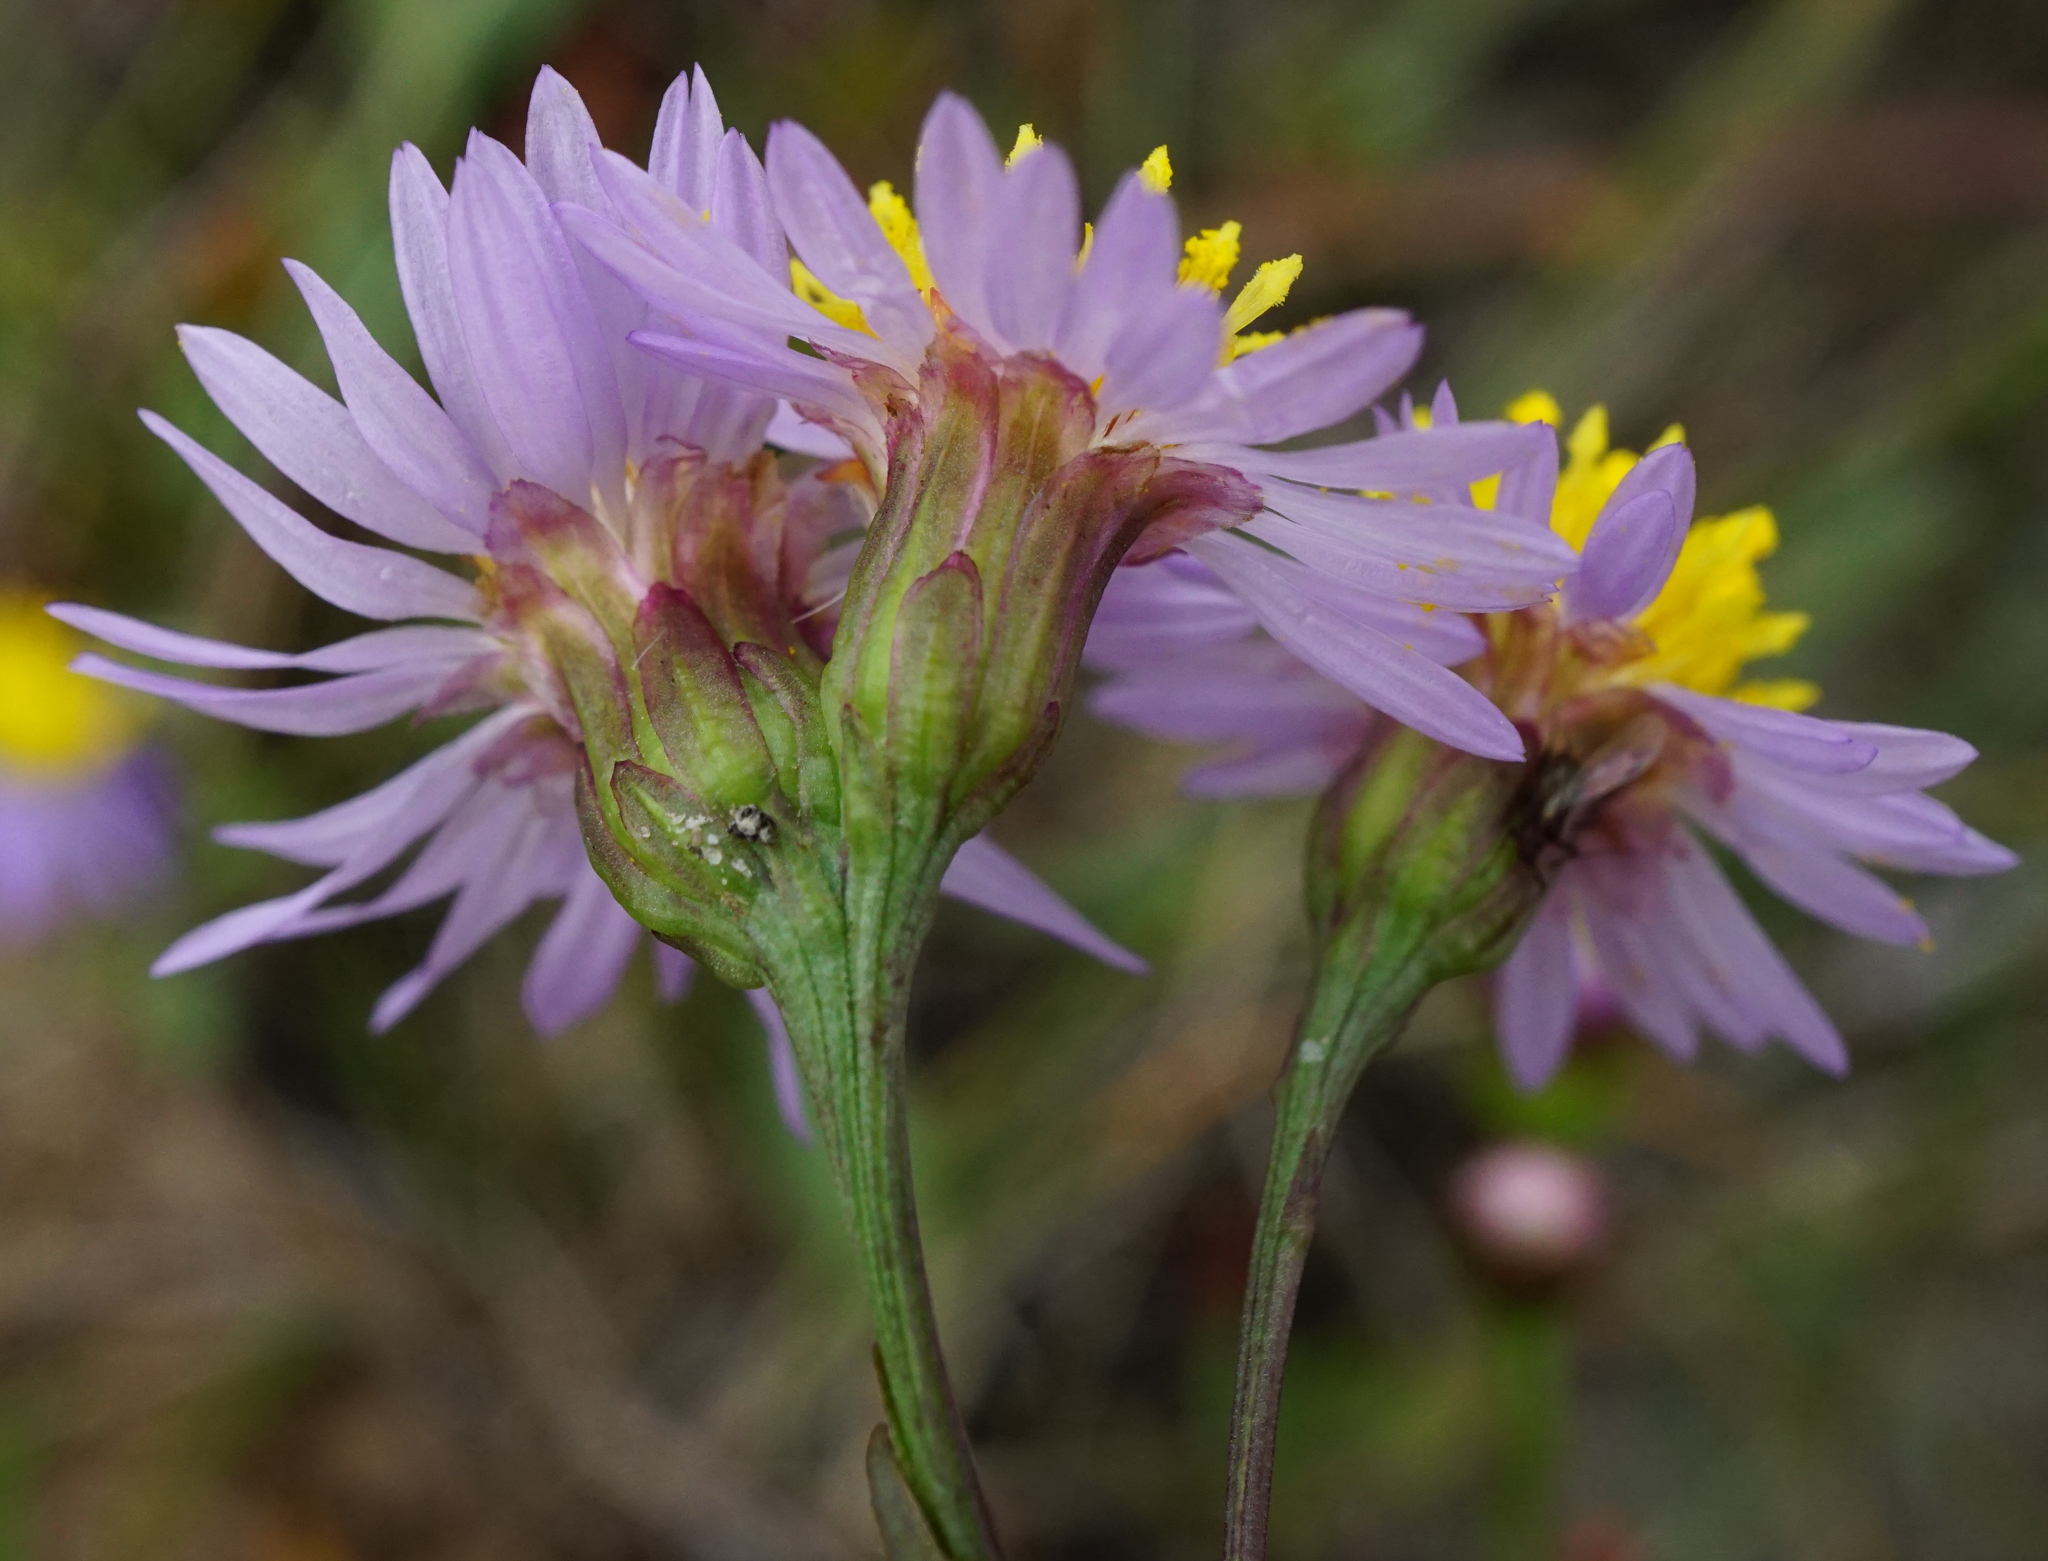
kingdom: Plantae
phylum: Tracheophyta
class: Magnoliopsida
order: Asterales
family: Asteraceae
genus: Tripolium
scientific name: Tripolium pannonicum
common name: Sea aster
